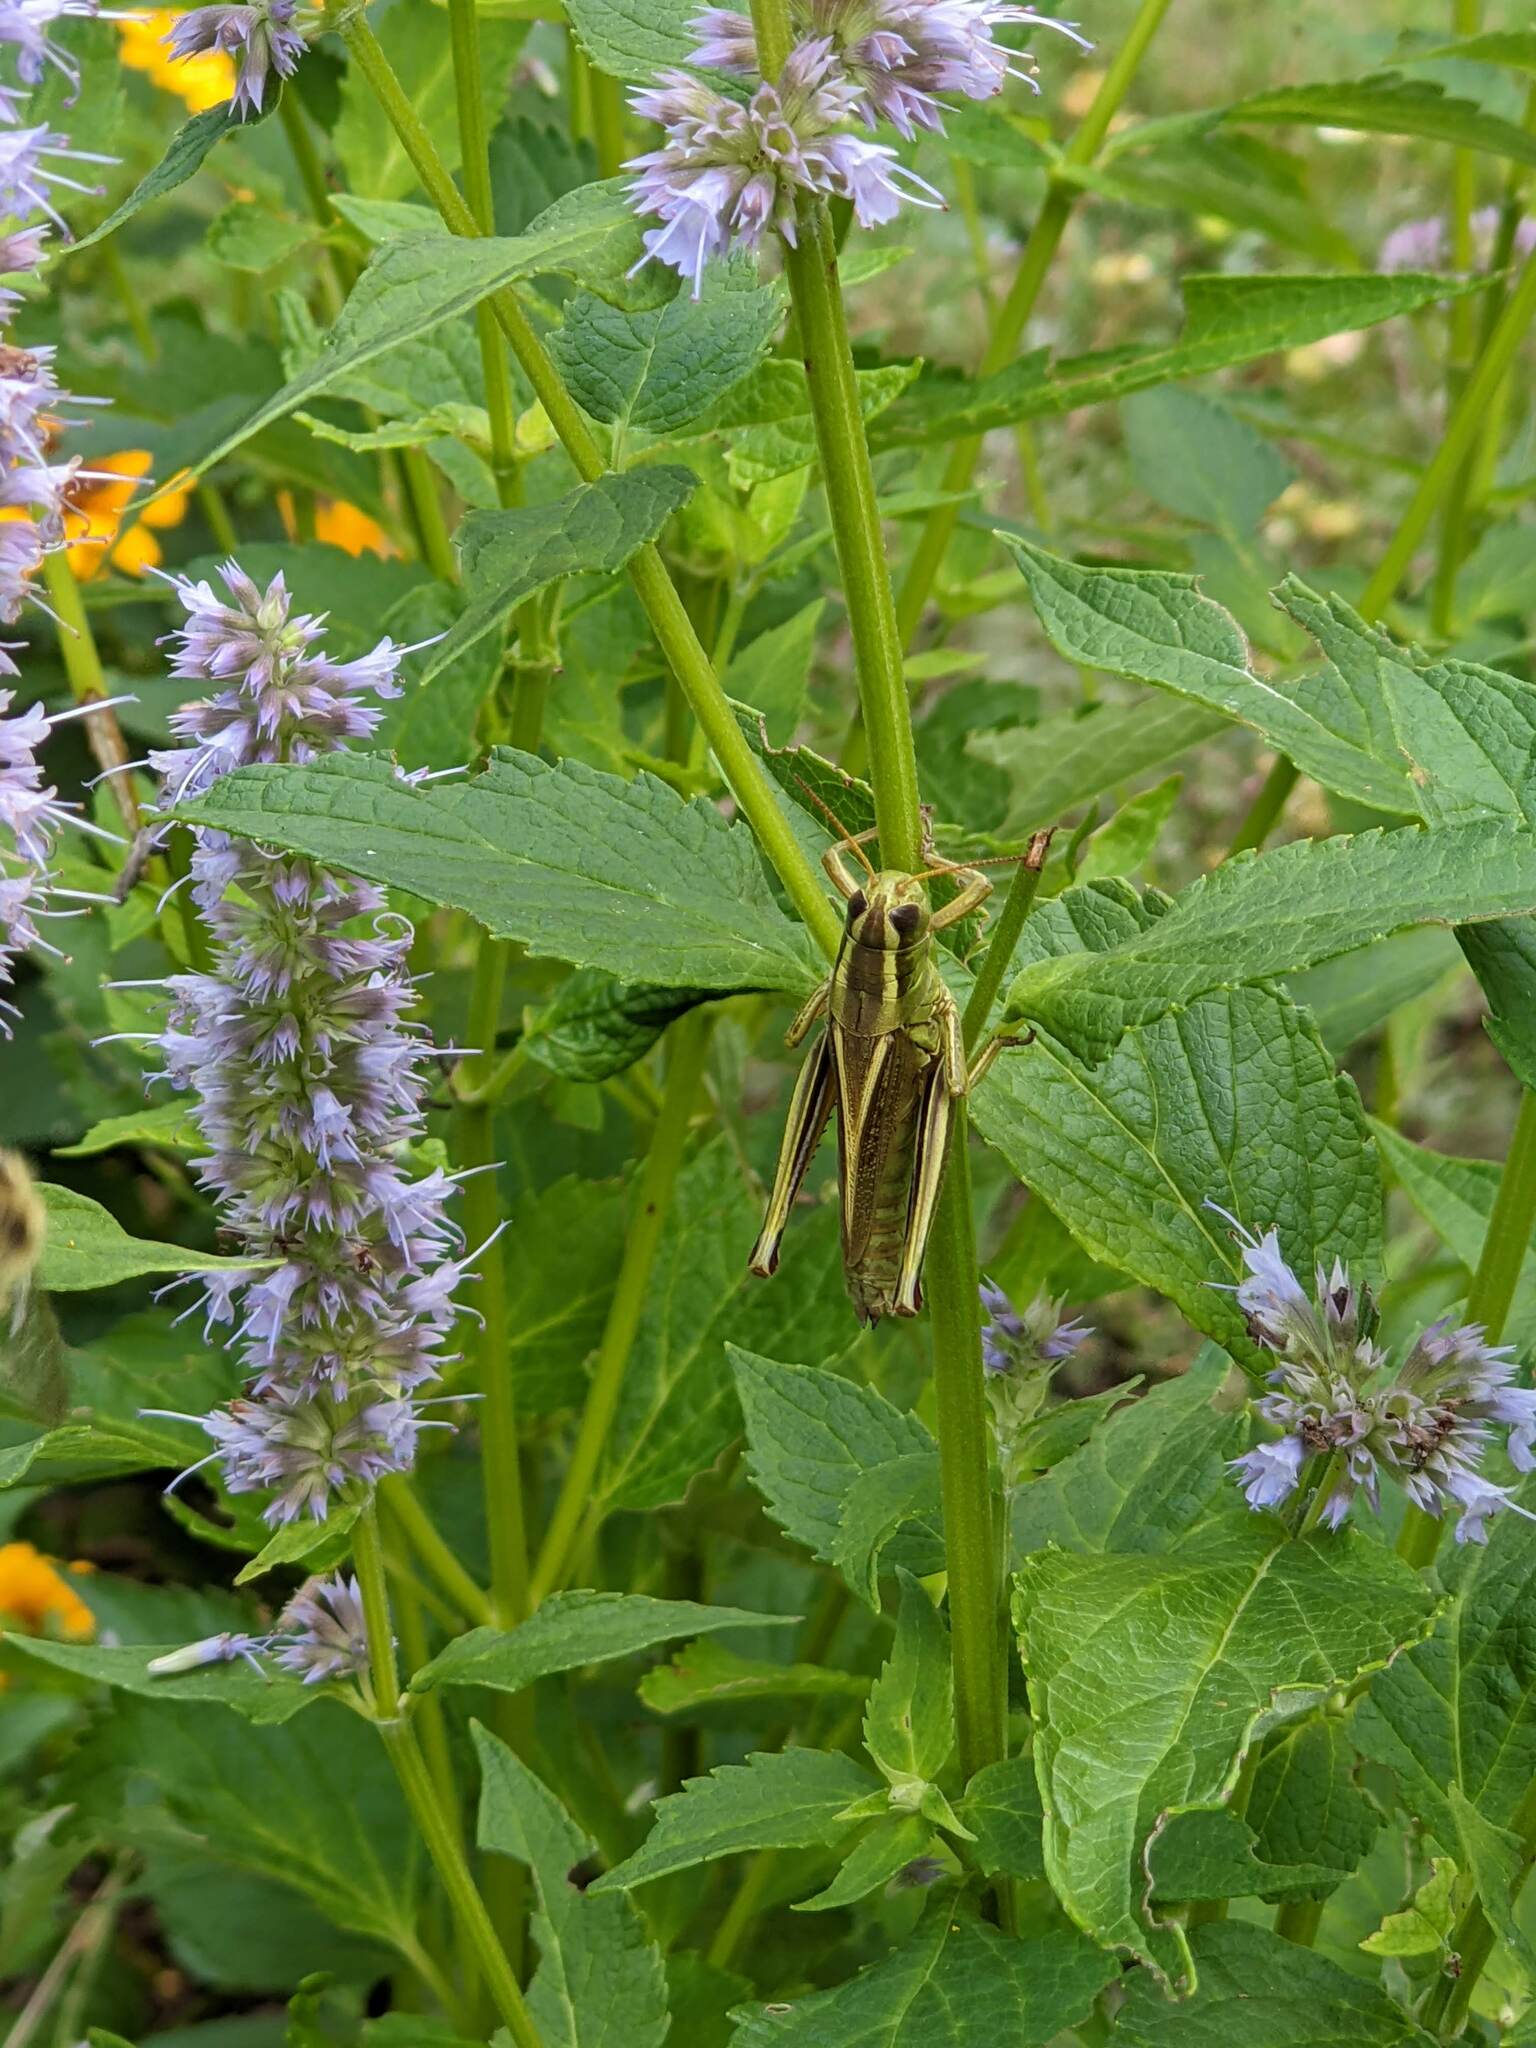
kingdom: Animalia
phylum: Arthropoda
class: Insecta
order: Orthoptera
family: Acrididae
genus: Melanoplus
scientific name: Melanoplus bivittatus
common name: Two-striped grasshopper
